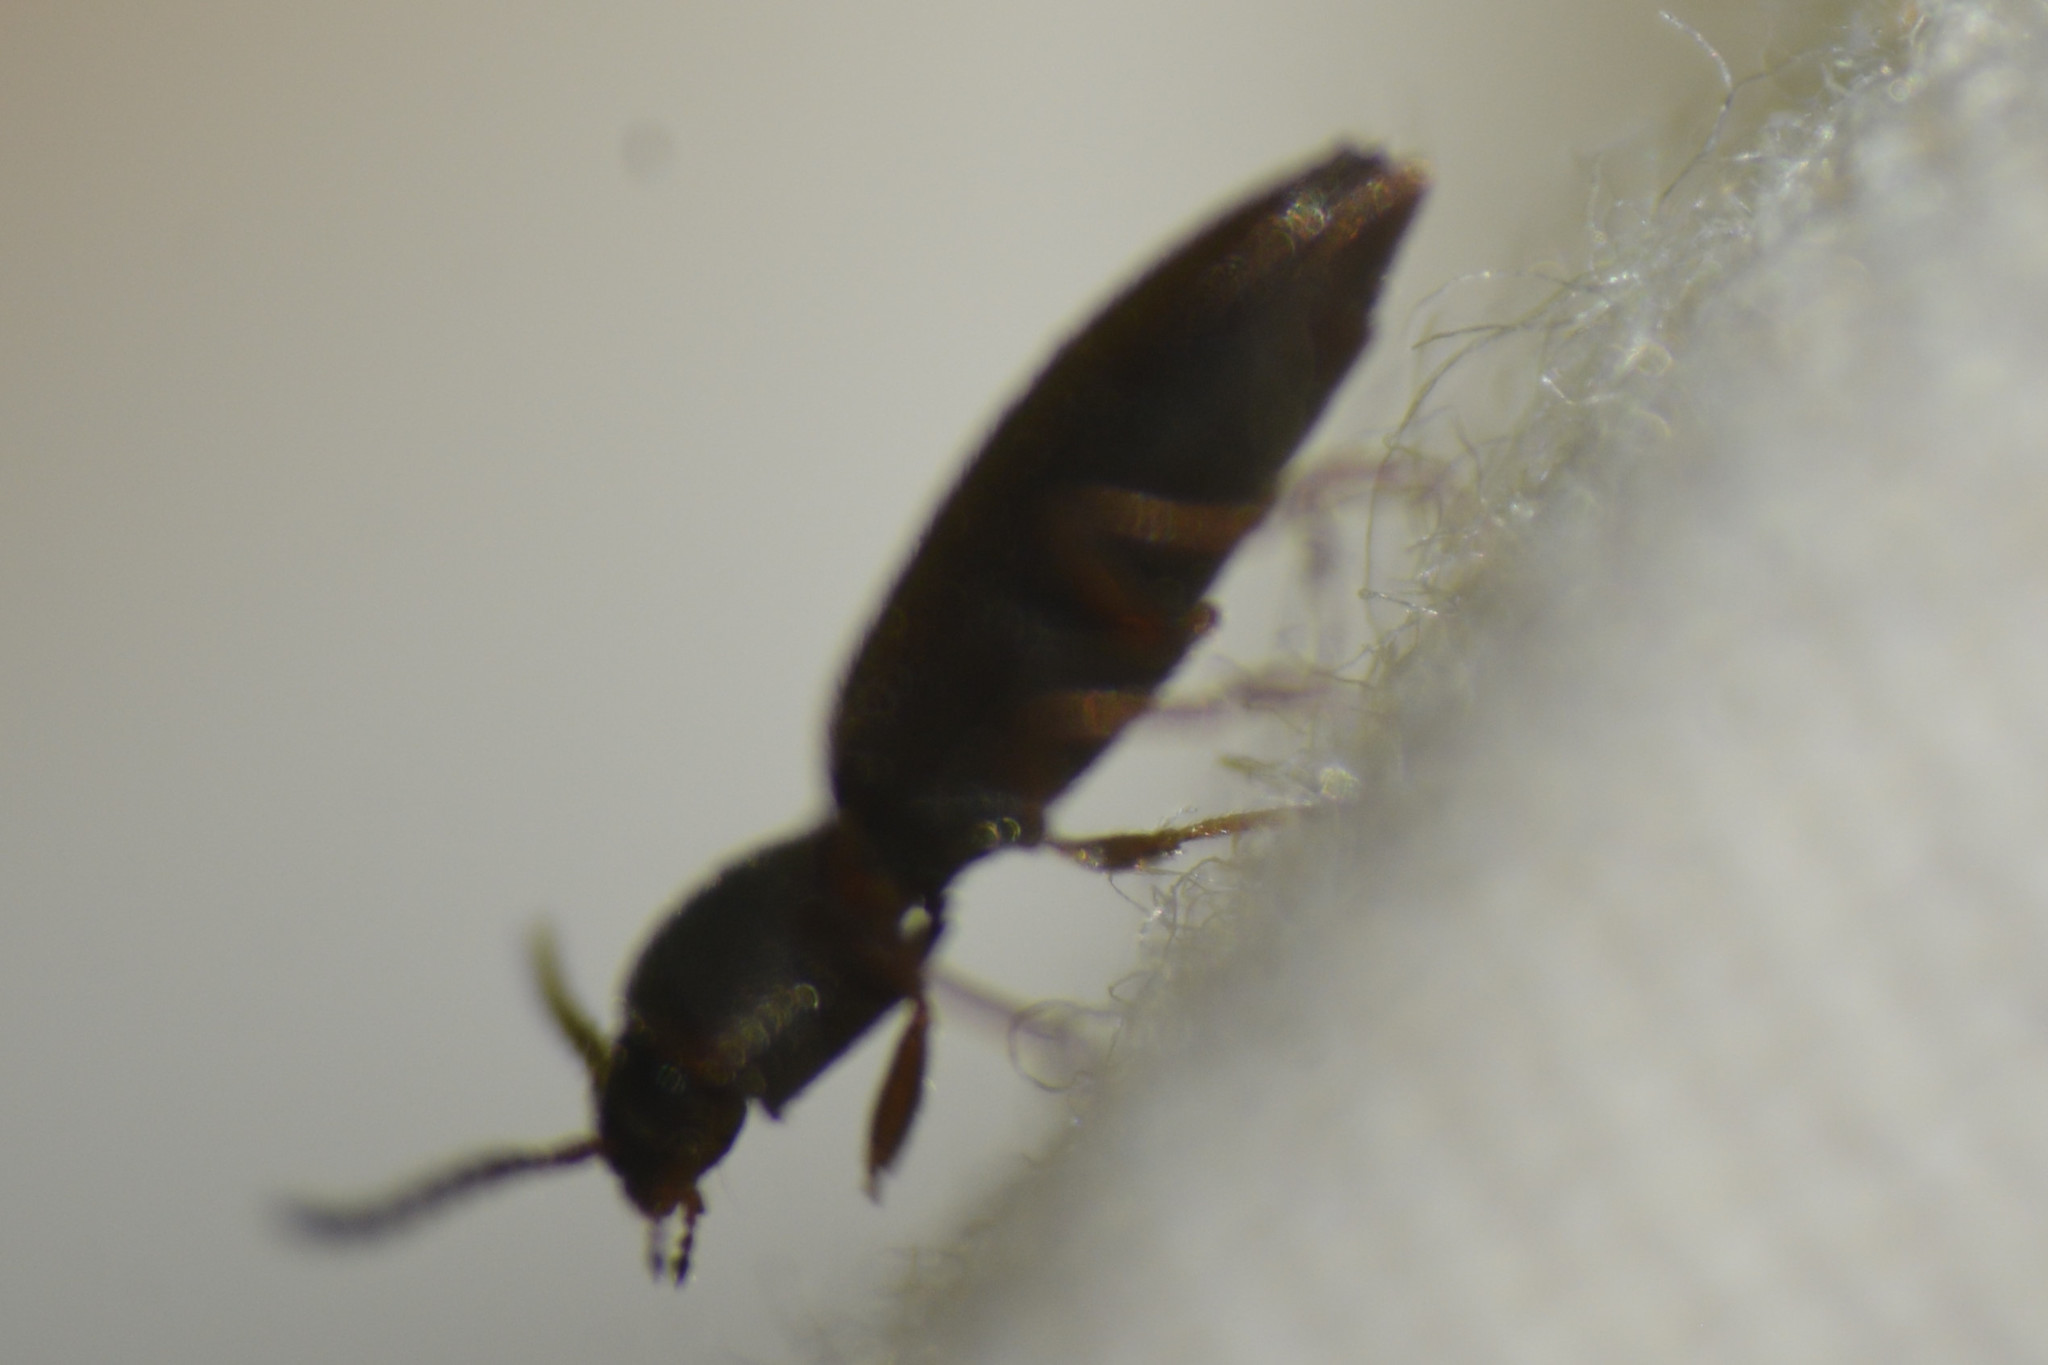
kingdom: Animalia
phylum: Arthropoda
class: Insecta
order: Coleoptera
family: Elateridae
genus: Agriotes
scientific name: Agriotes pallidulus
